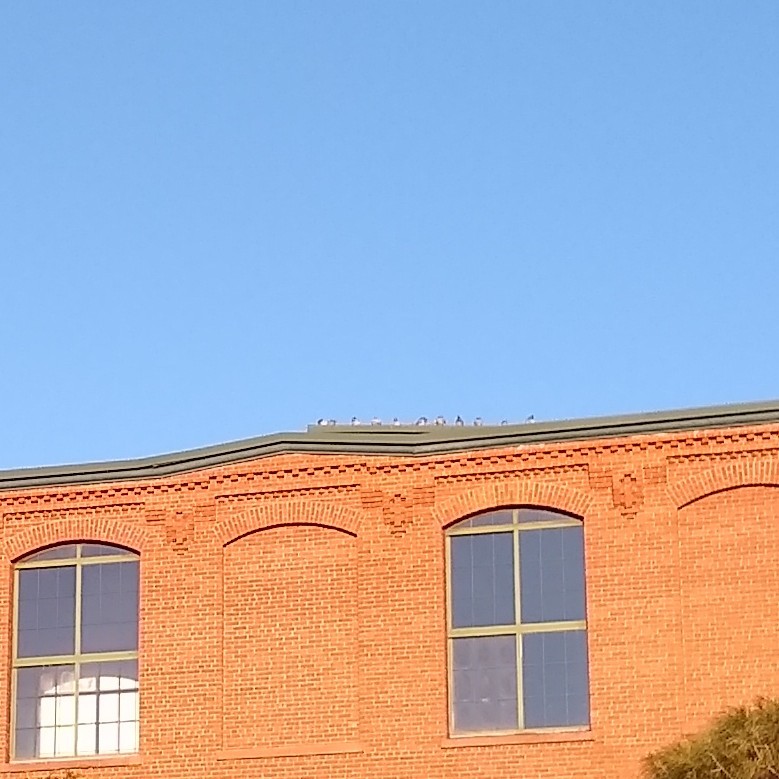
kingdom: Animalia
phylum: Chordata
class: Aves
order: Columbiformes
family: Columbidae
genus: Columba
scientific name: Columba livia
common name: Rock pigeon
